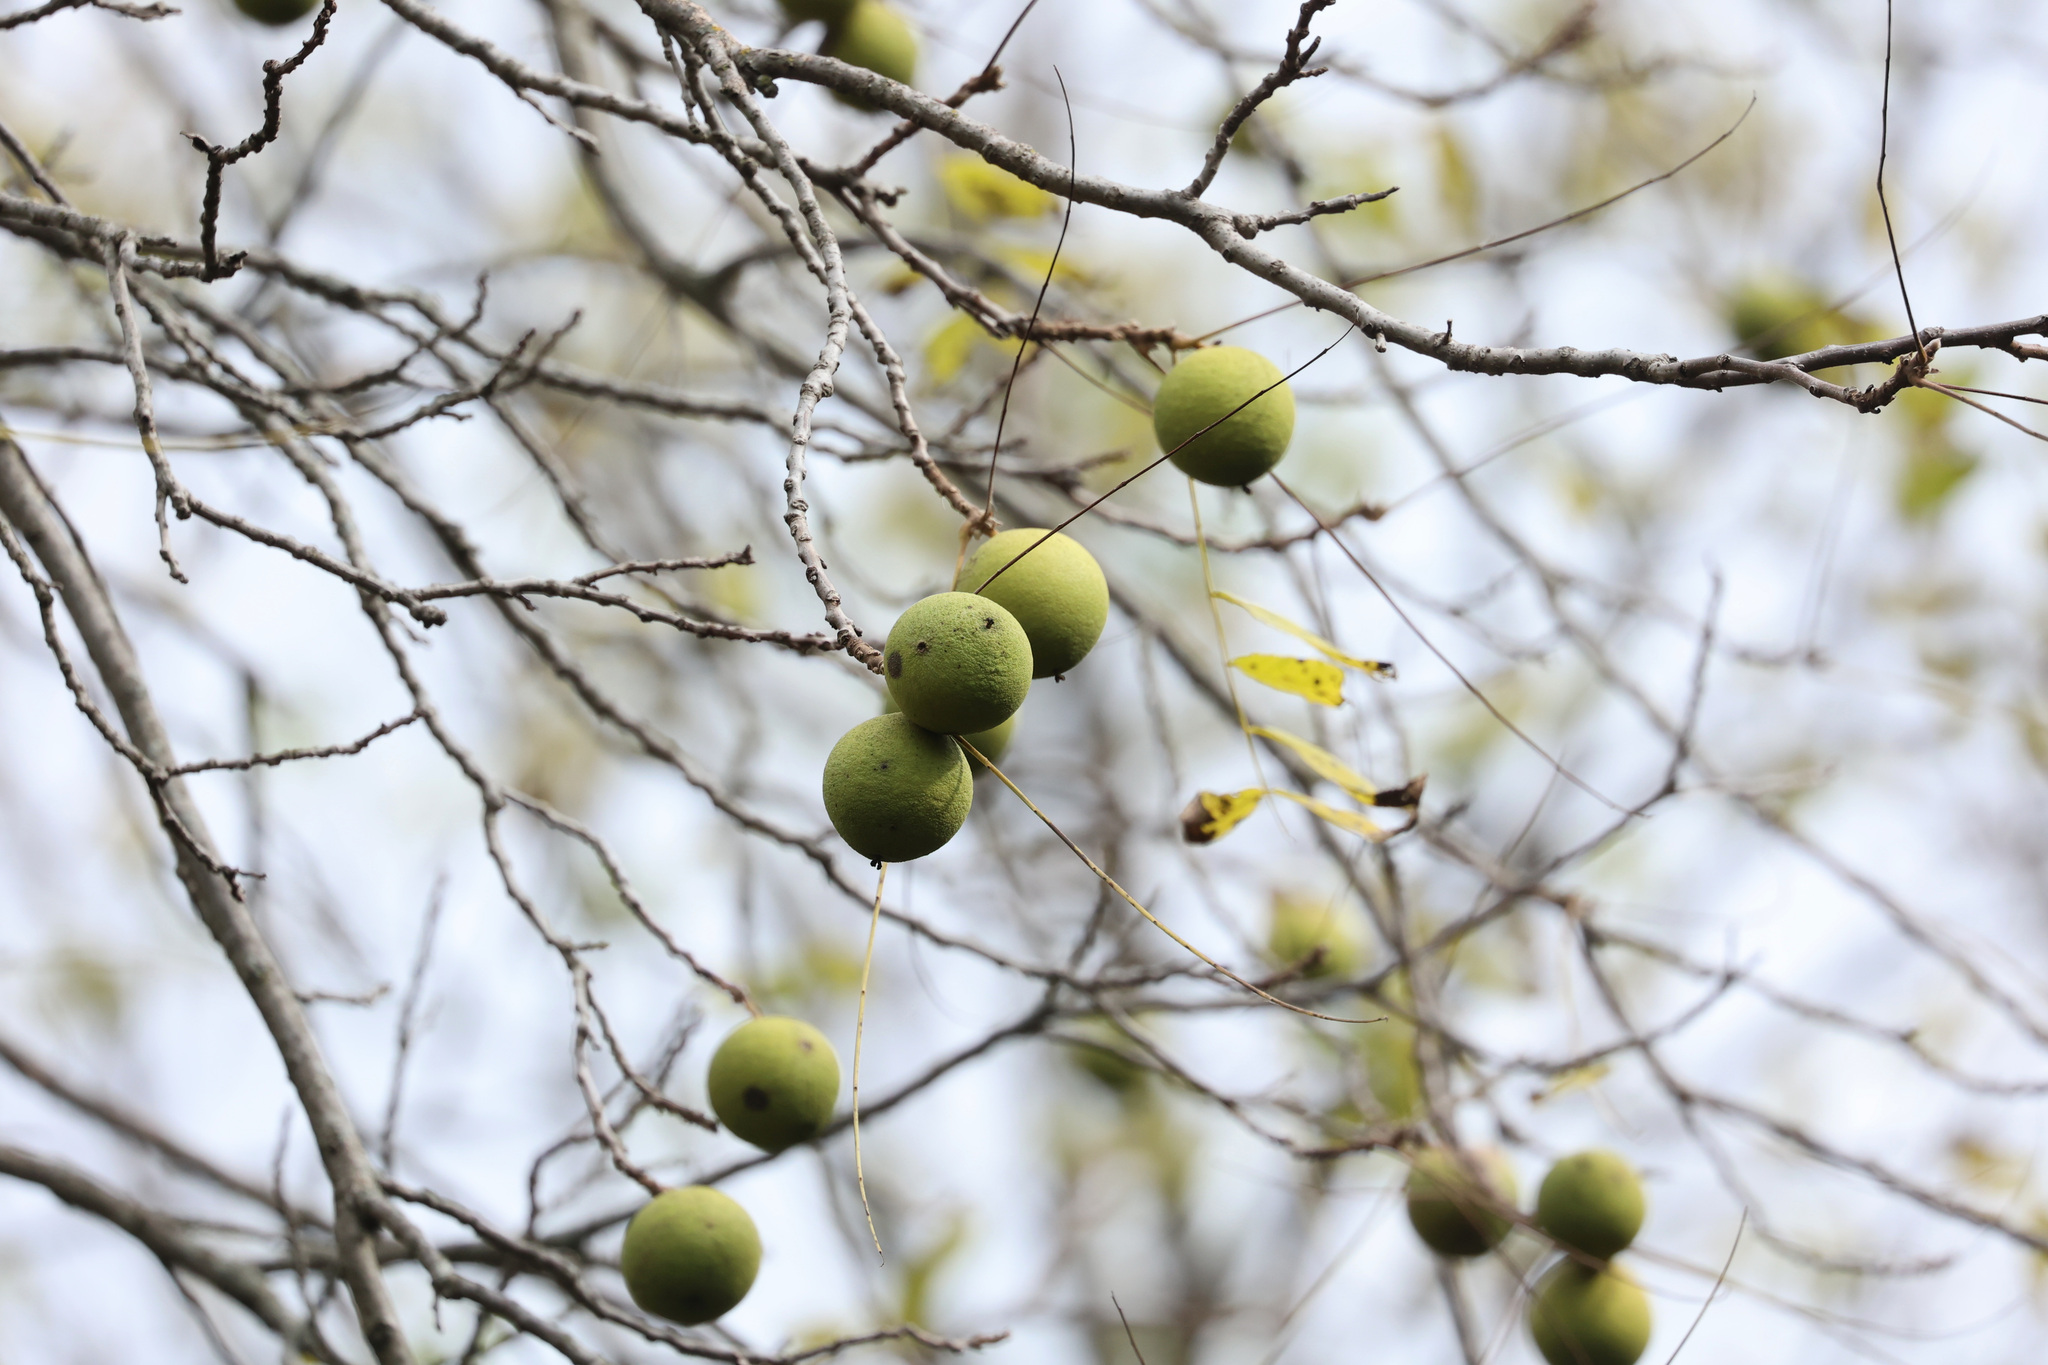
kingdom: Plantae
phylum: Tracheophyta
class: Magnoliopsida
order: Fagales
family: Juglandaceae
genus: Juglans
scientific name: Juglans nigra
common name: Black walnut
